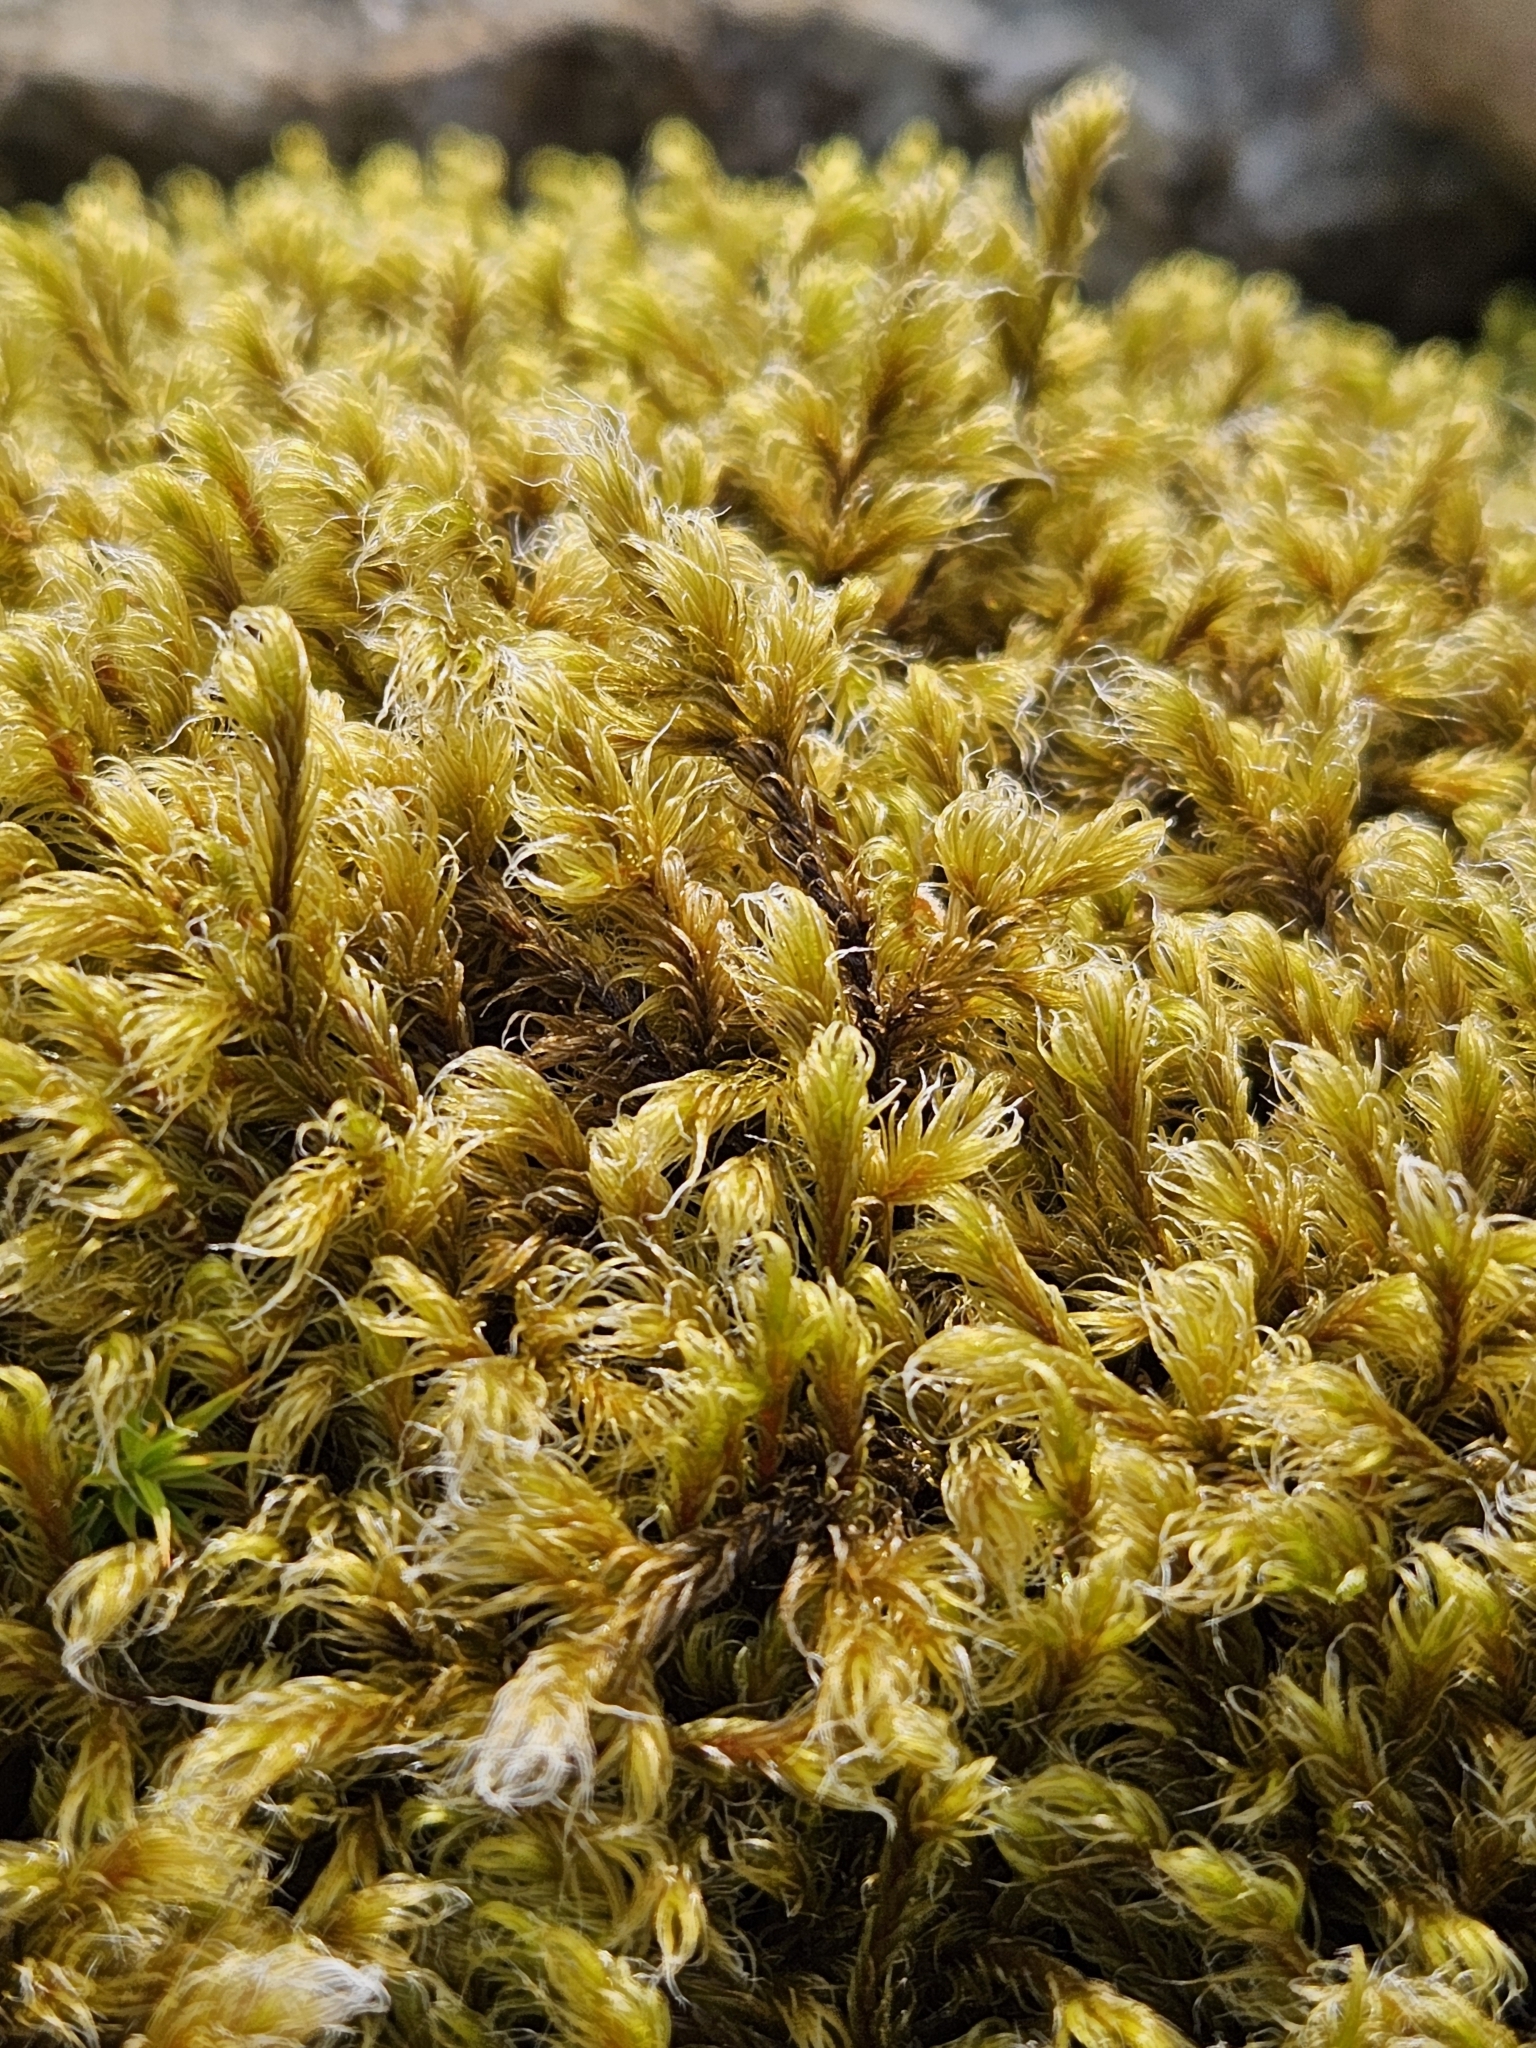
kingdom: Plantae
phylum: Bryophyta
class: Bryopsida
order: Grimmiales
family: Grimmiaceae
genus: Racomitrium
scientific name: Racomitrium lanuginosum
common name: Hoary rock moss
